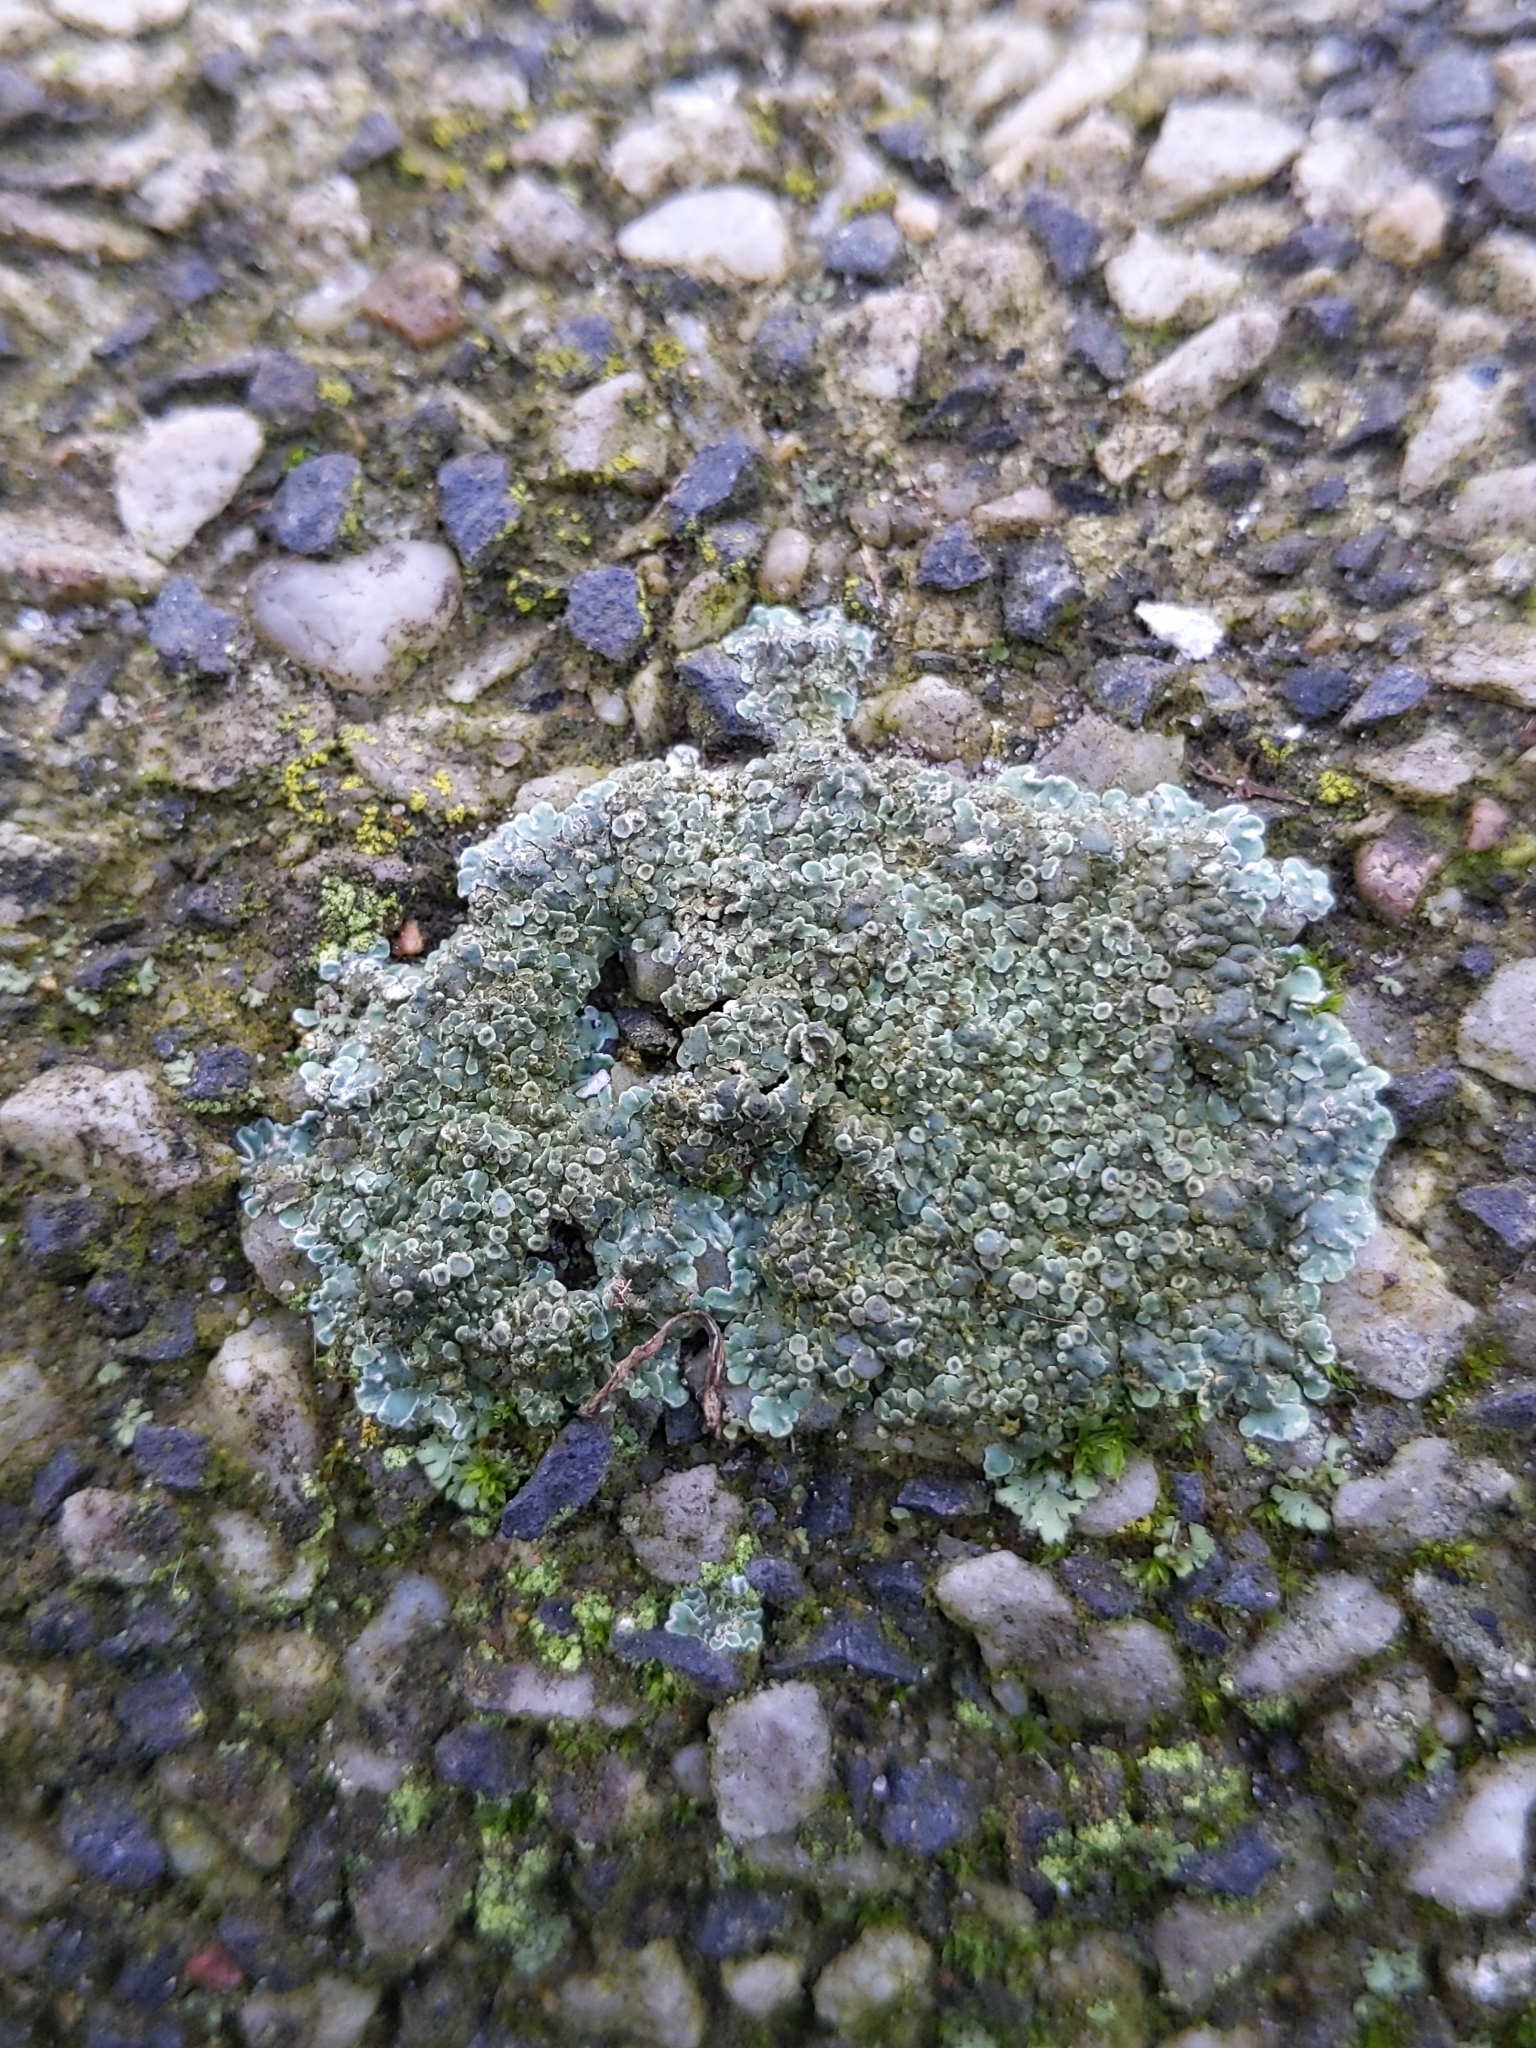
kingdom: Fungi
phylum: Ascomycota
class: Lecanoromycetes
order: Lecanorales
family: Lecanoraceae
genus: Protoparmeliopsis
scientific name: Protoparmeliopsis muralis
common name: Stonewall rim lichen
